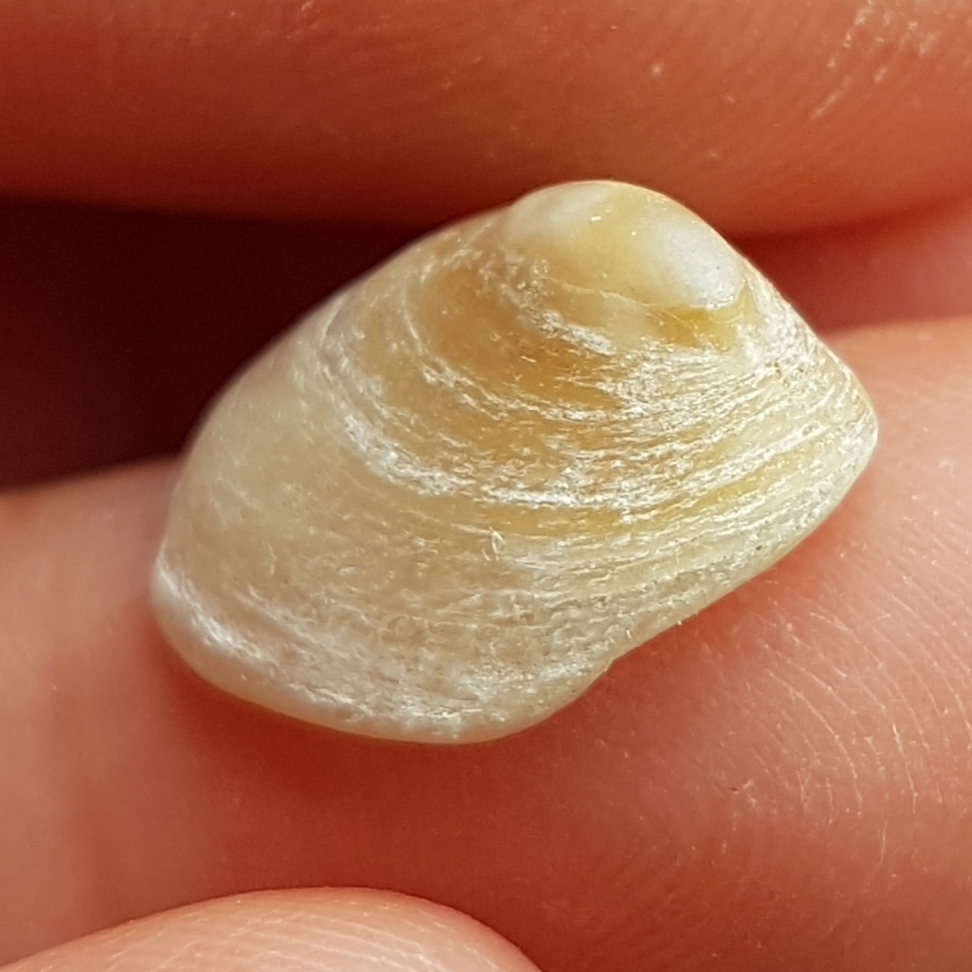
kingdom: Animalia
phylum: Mollusca
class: Gastropoda
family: Patellidae
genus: Patella
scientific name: Patella pellucida
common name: Blue-rayed limpet
